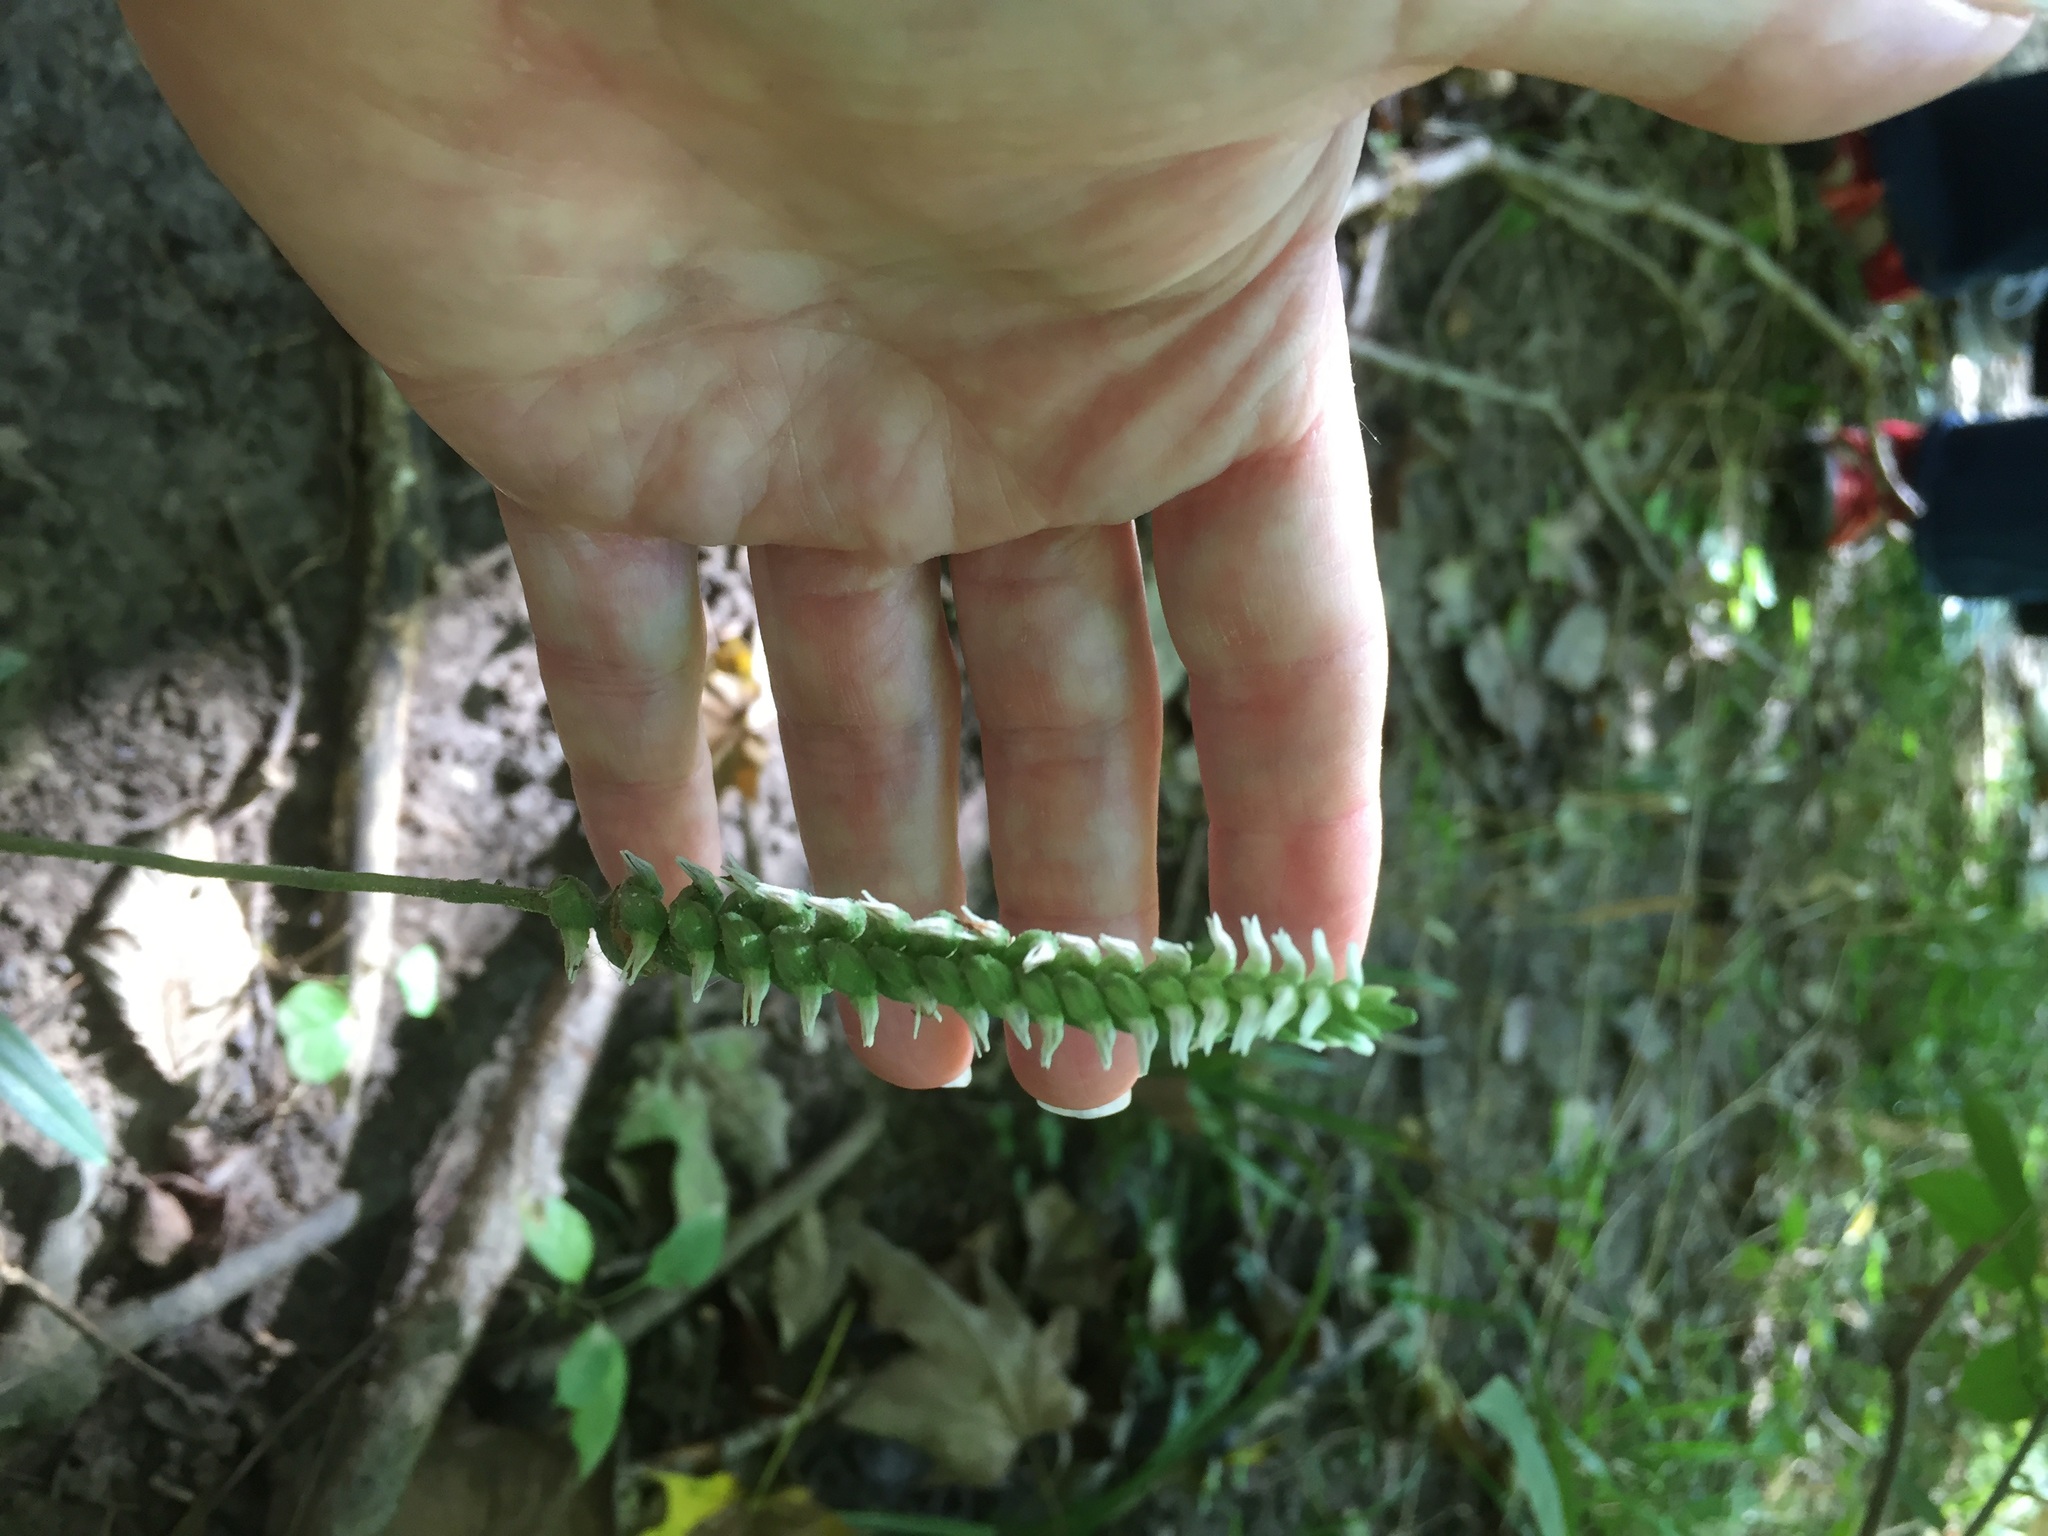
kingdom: Plantae
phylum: Tracheophyta
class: Liliopsida
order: Asparagales
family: Orchidaceae
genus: Spiranthes
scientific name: Spiranthes ovalis
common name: October ladies'-tresses
